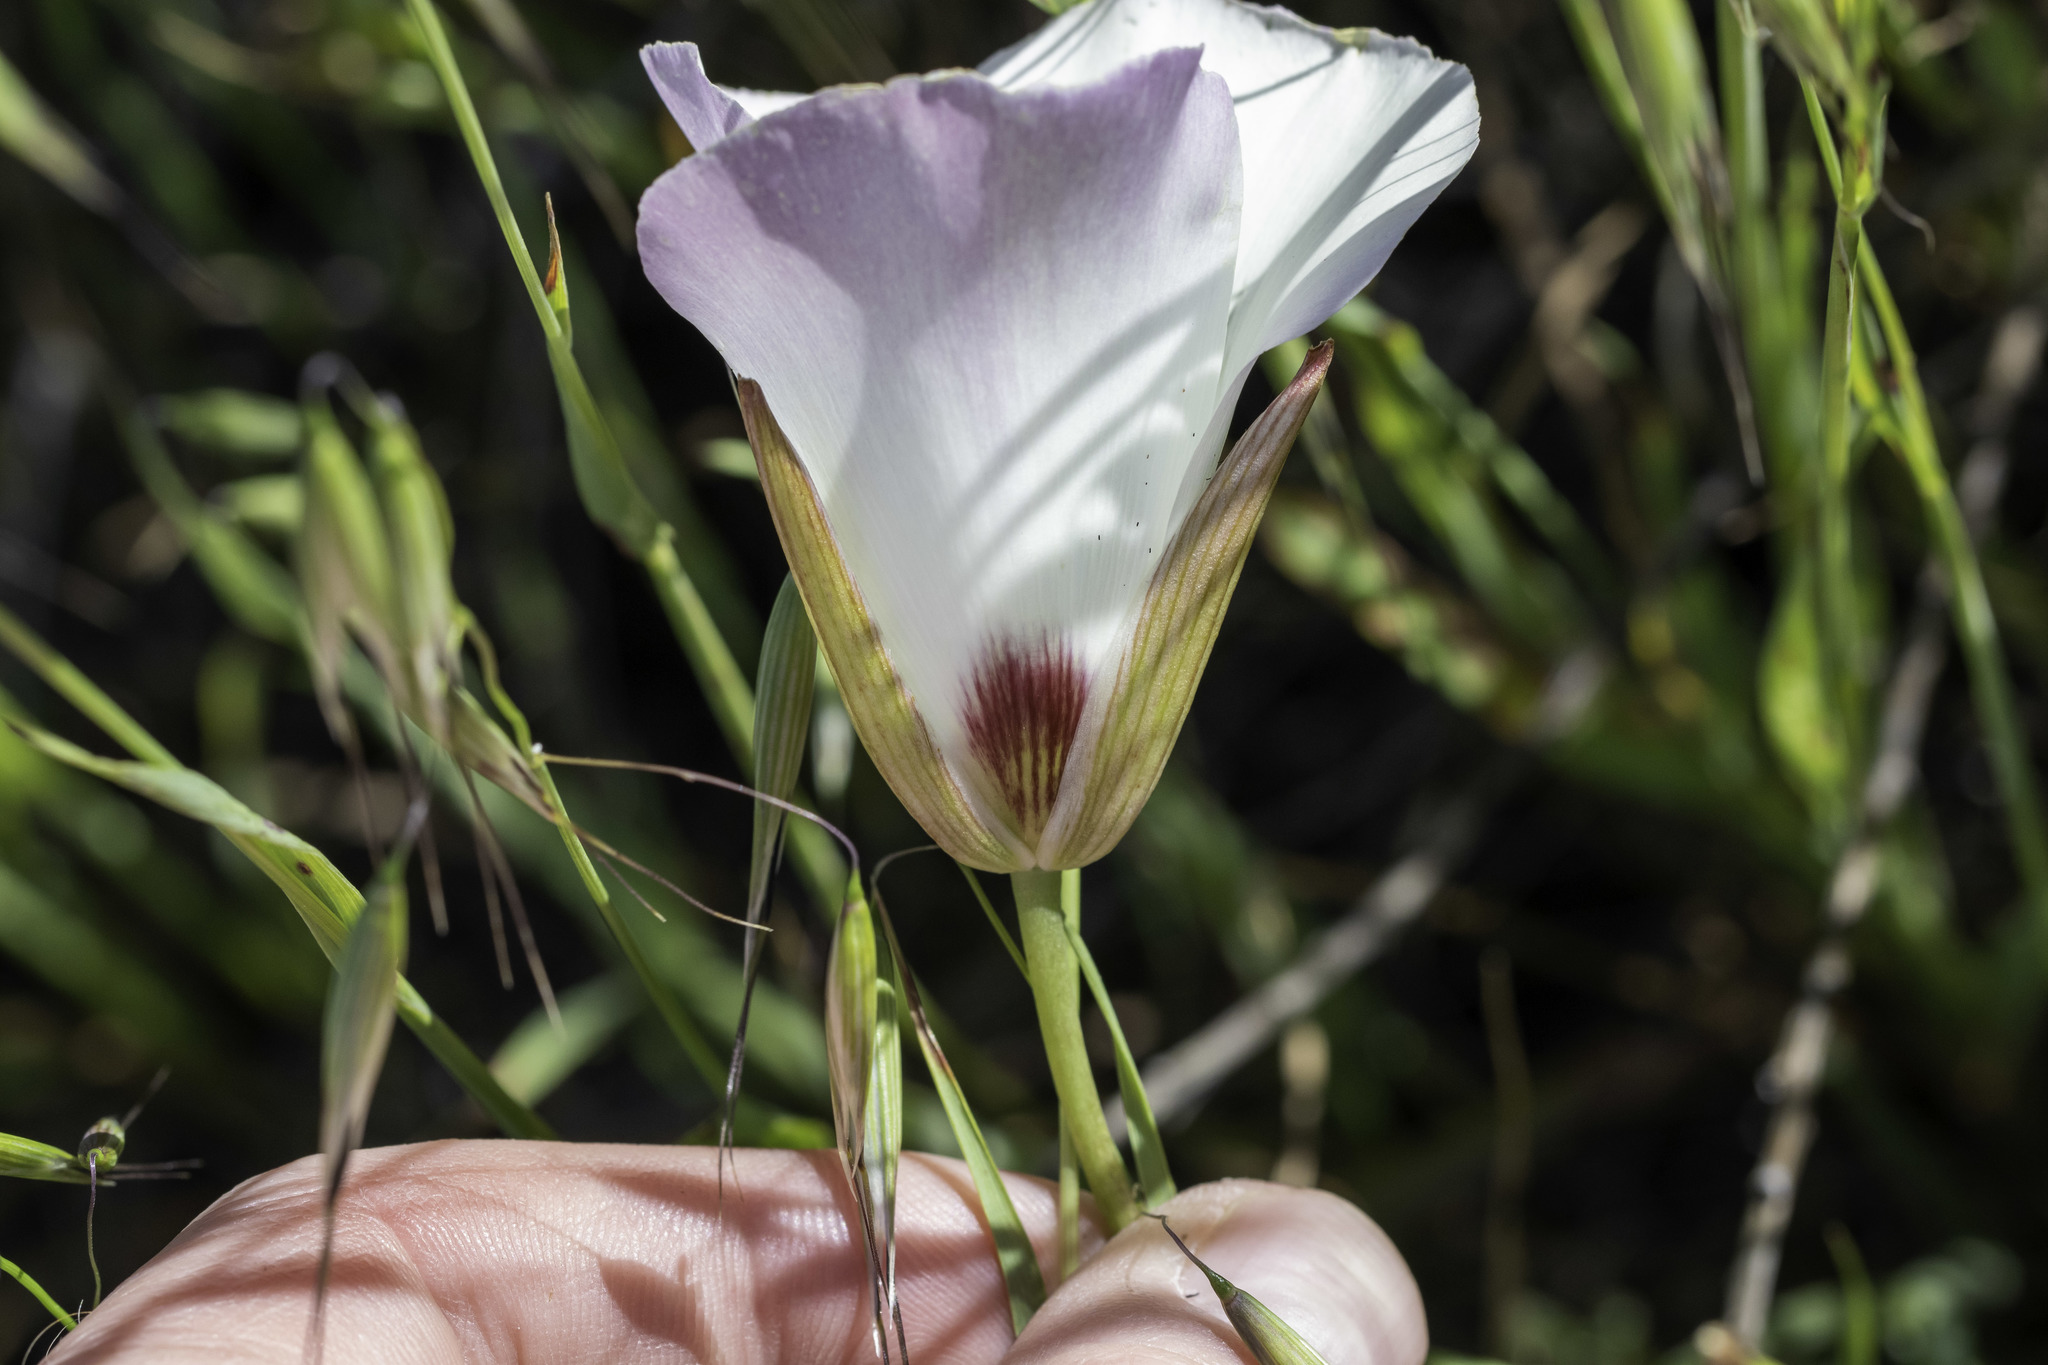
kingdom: Plantae
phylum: Tracheophyta
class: Liliopsida
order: Liliales
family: Liliaceae
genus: Calochortus
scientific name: Calochortus catalinae
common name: Catalina mariposa-lily
